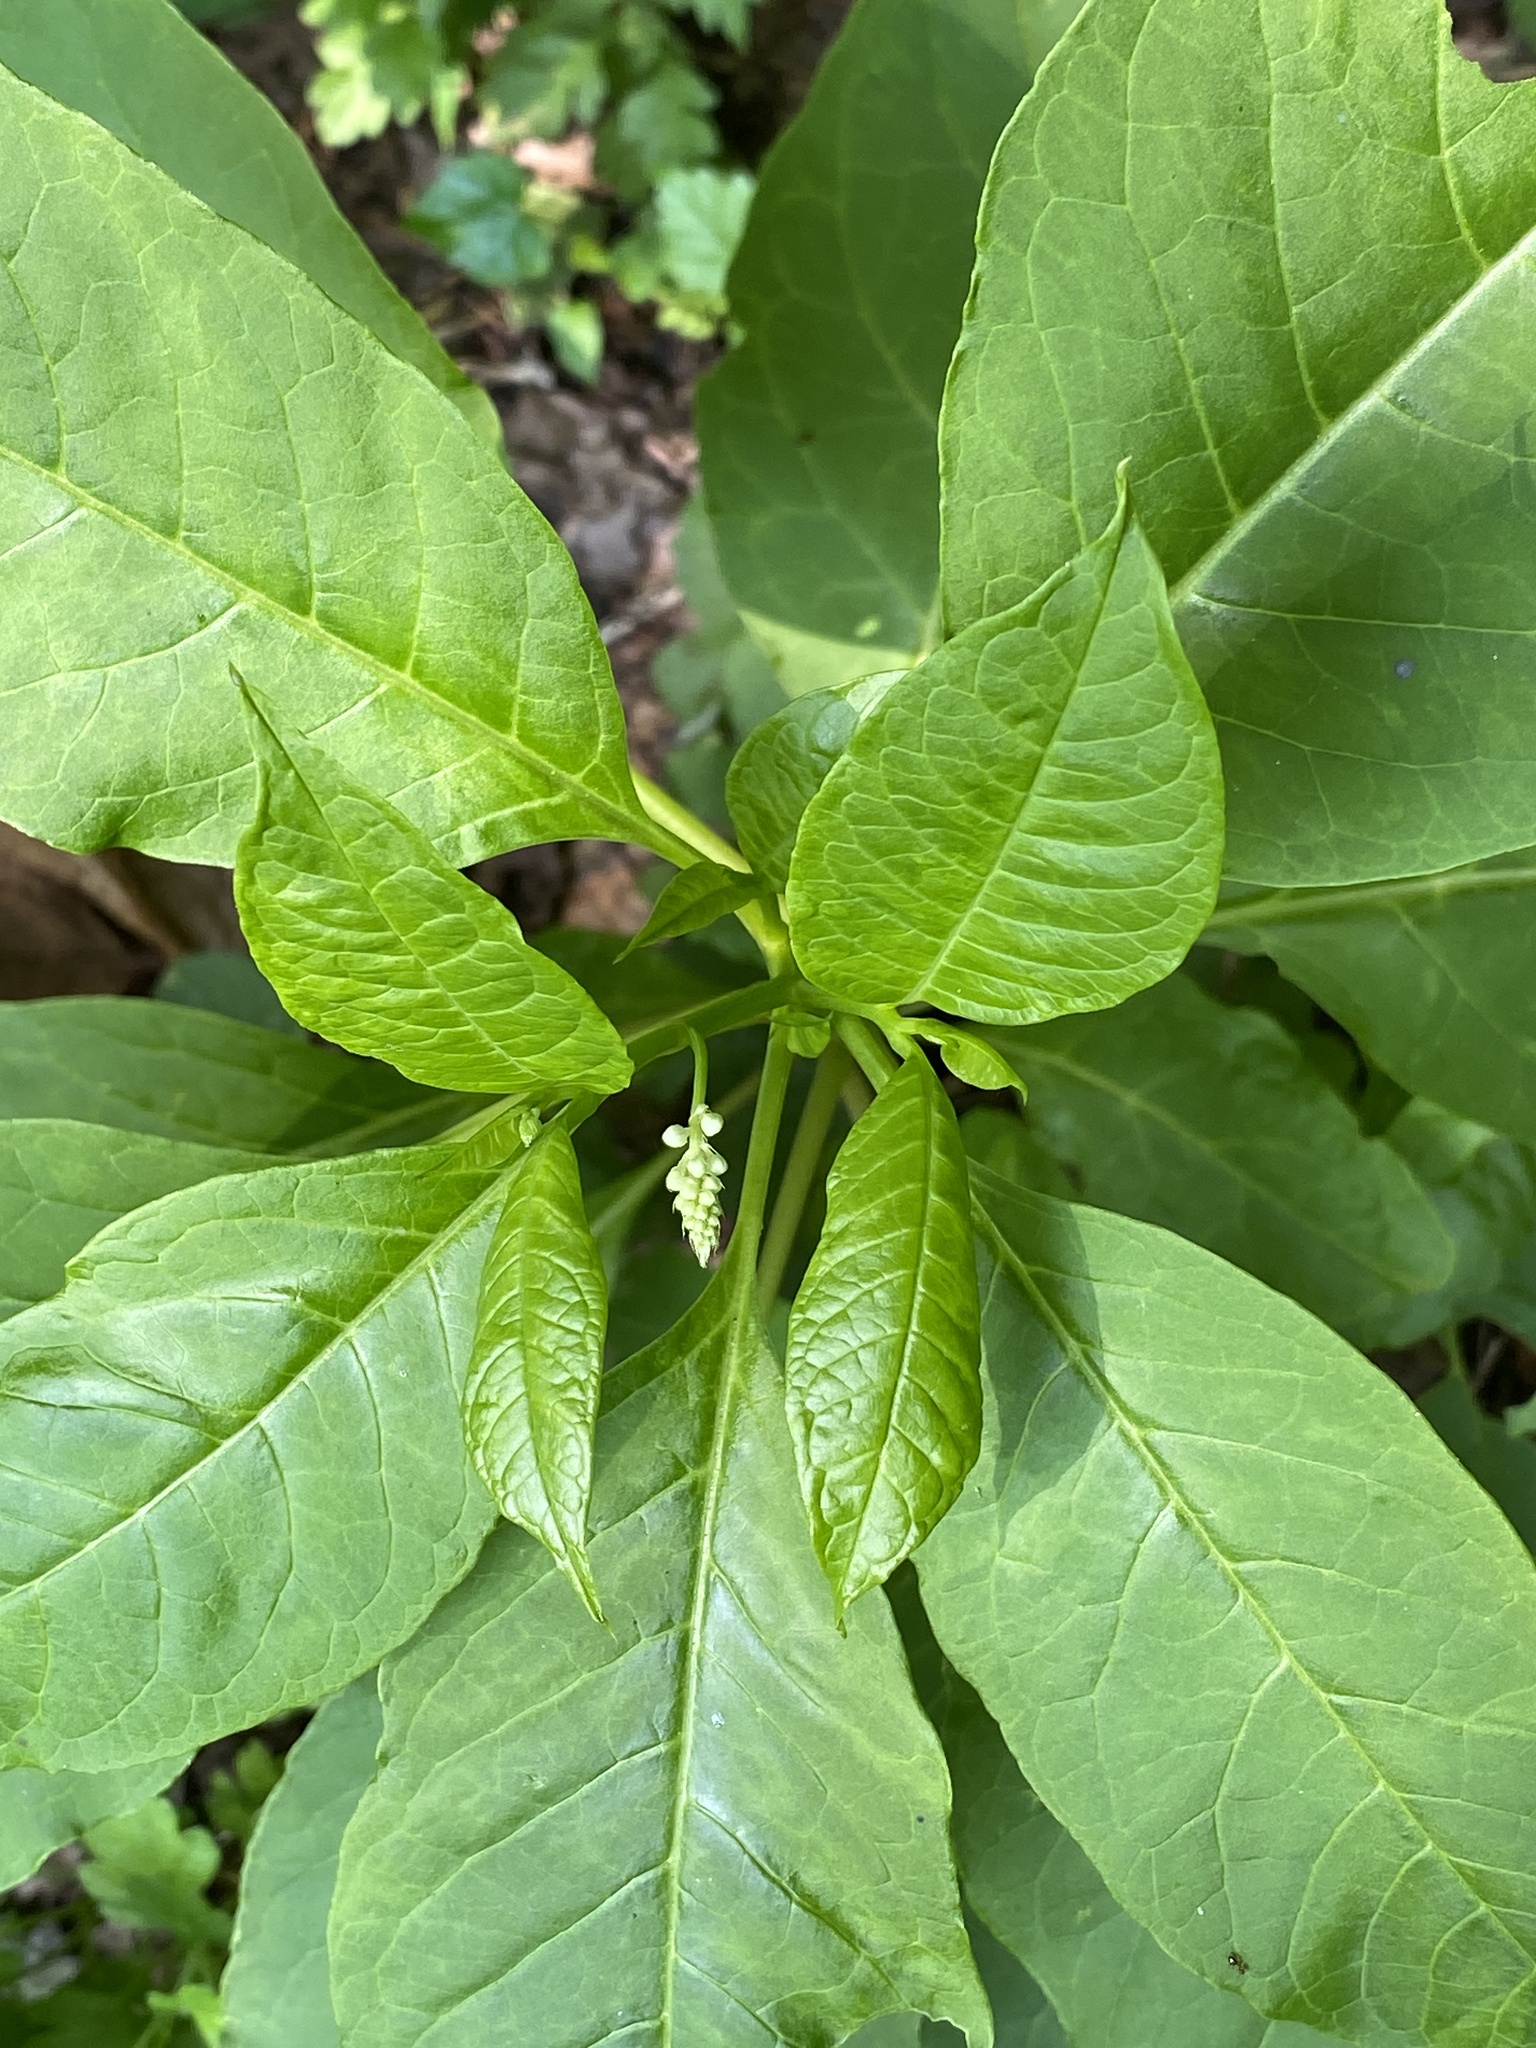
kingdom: Plantae
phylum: Tracheophyta
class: Magnoliopsida
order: Caryophyllales
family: Phytolaccaceae
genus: Phytolacca
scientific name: Phytolacca americana
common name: American pokeweed
